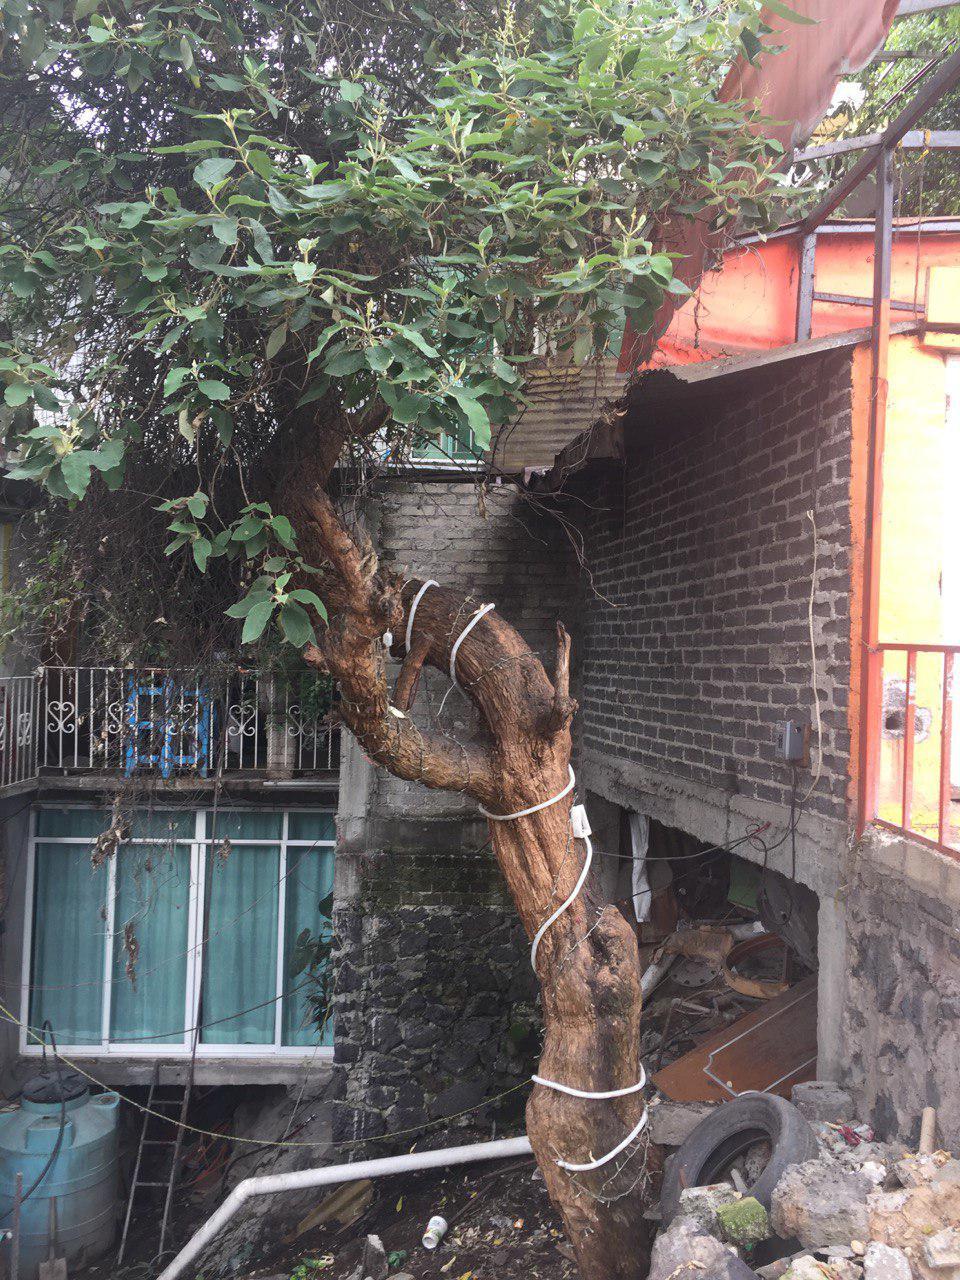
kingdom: Plantae
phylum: Tracheophyta
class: Magnoliopsida
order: Lamiales
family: Scrophulariaceae
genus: Buddleja
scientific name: Buddleja cordata
